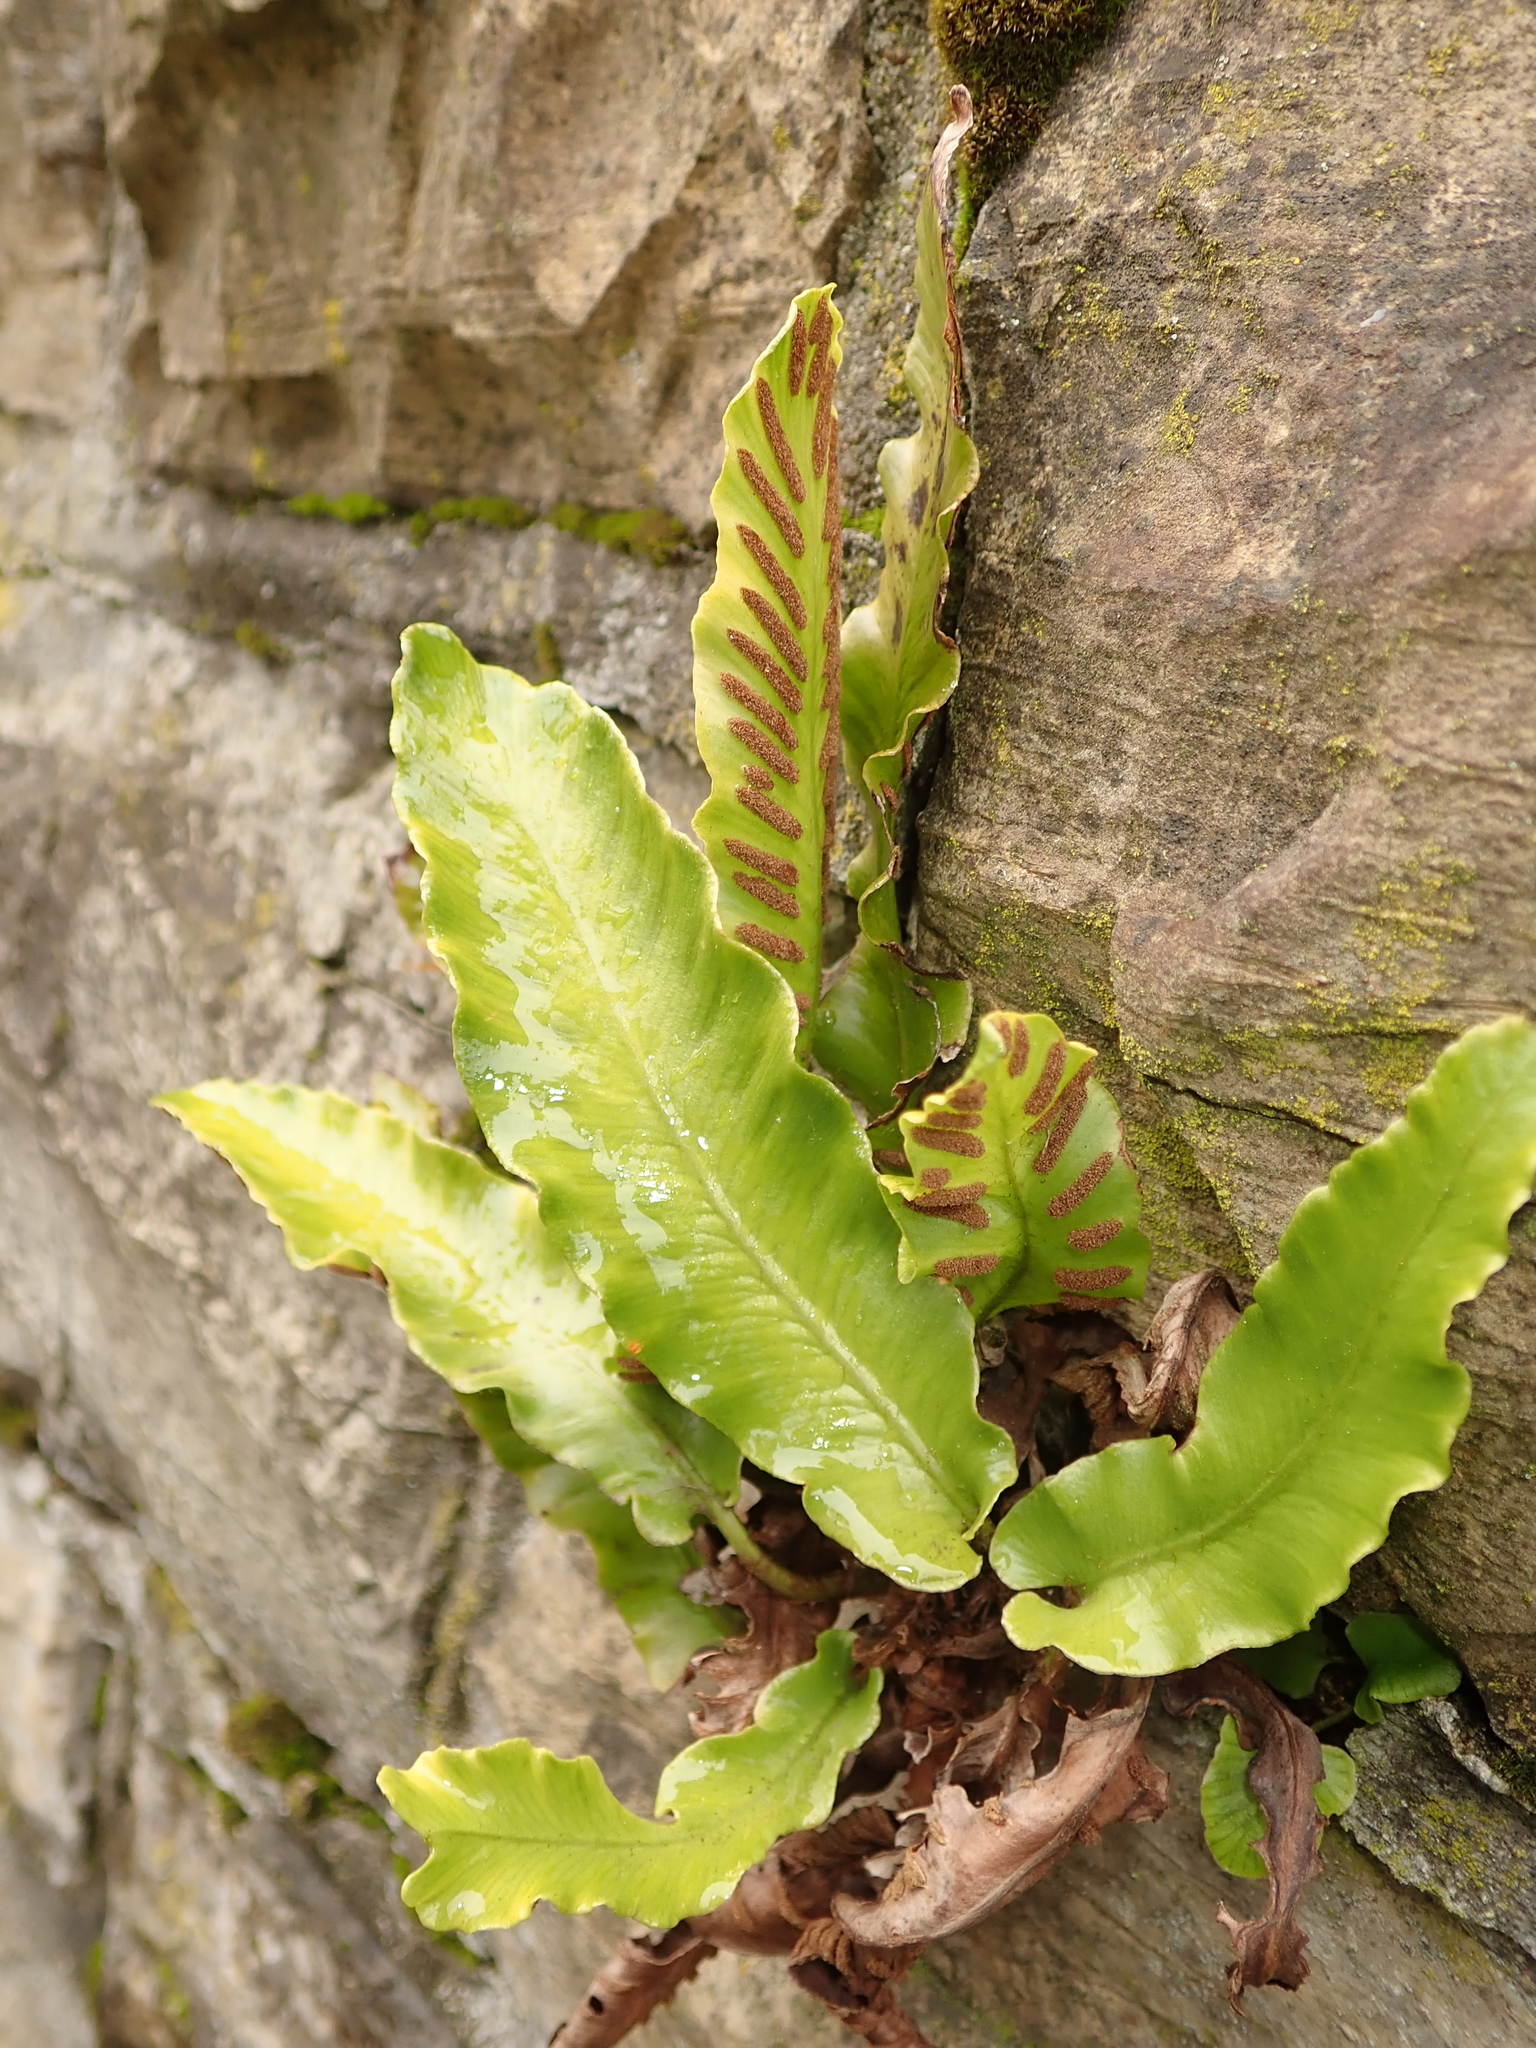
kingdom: Plantae
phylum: Tracheophyta
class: Polypodiopsida
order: Polypodiales
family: Aspleniaceae
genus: Asplenium
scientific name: Asplenium scolopendrium
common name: Hart's-tongue fern
